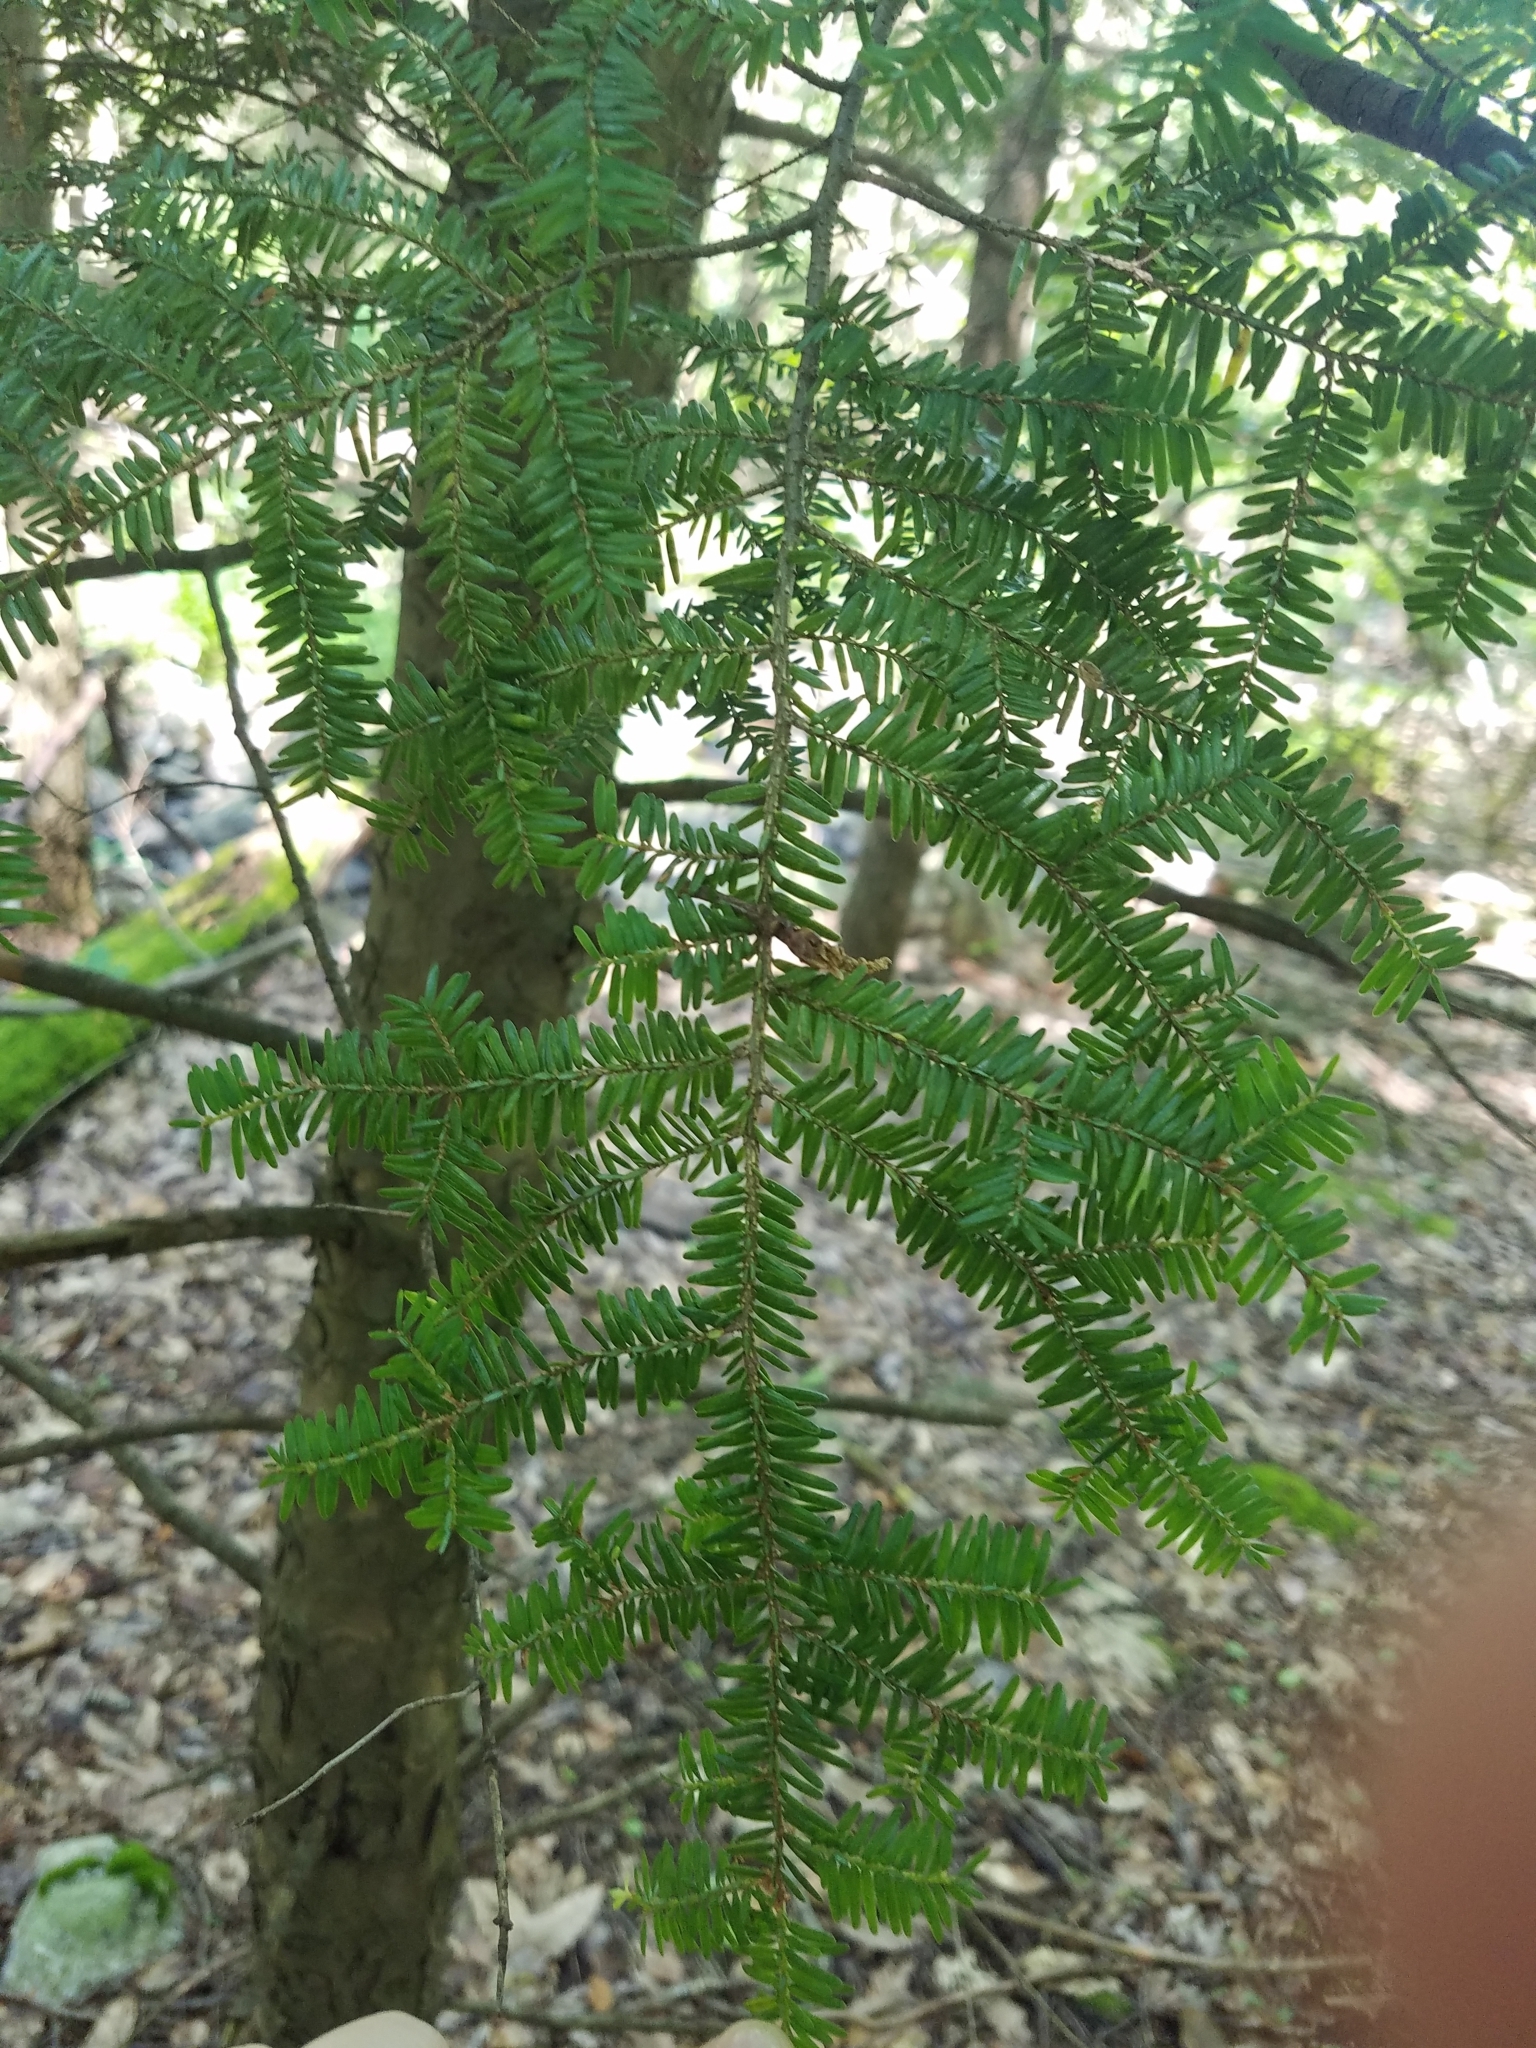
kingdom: Plantae
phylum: Tracheophyta
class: Pinopsida
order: Pinales
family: Pinaceae
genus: Tsuga
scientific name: Tsuga canadensis
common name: Eastern hemlock
